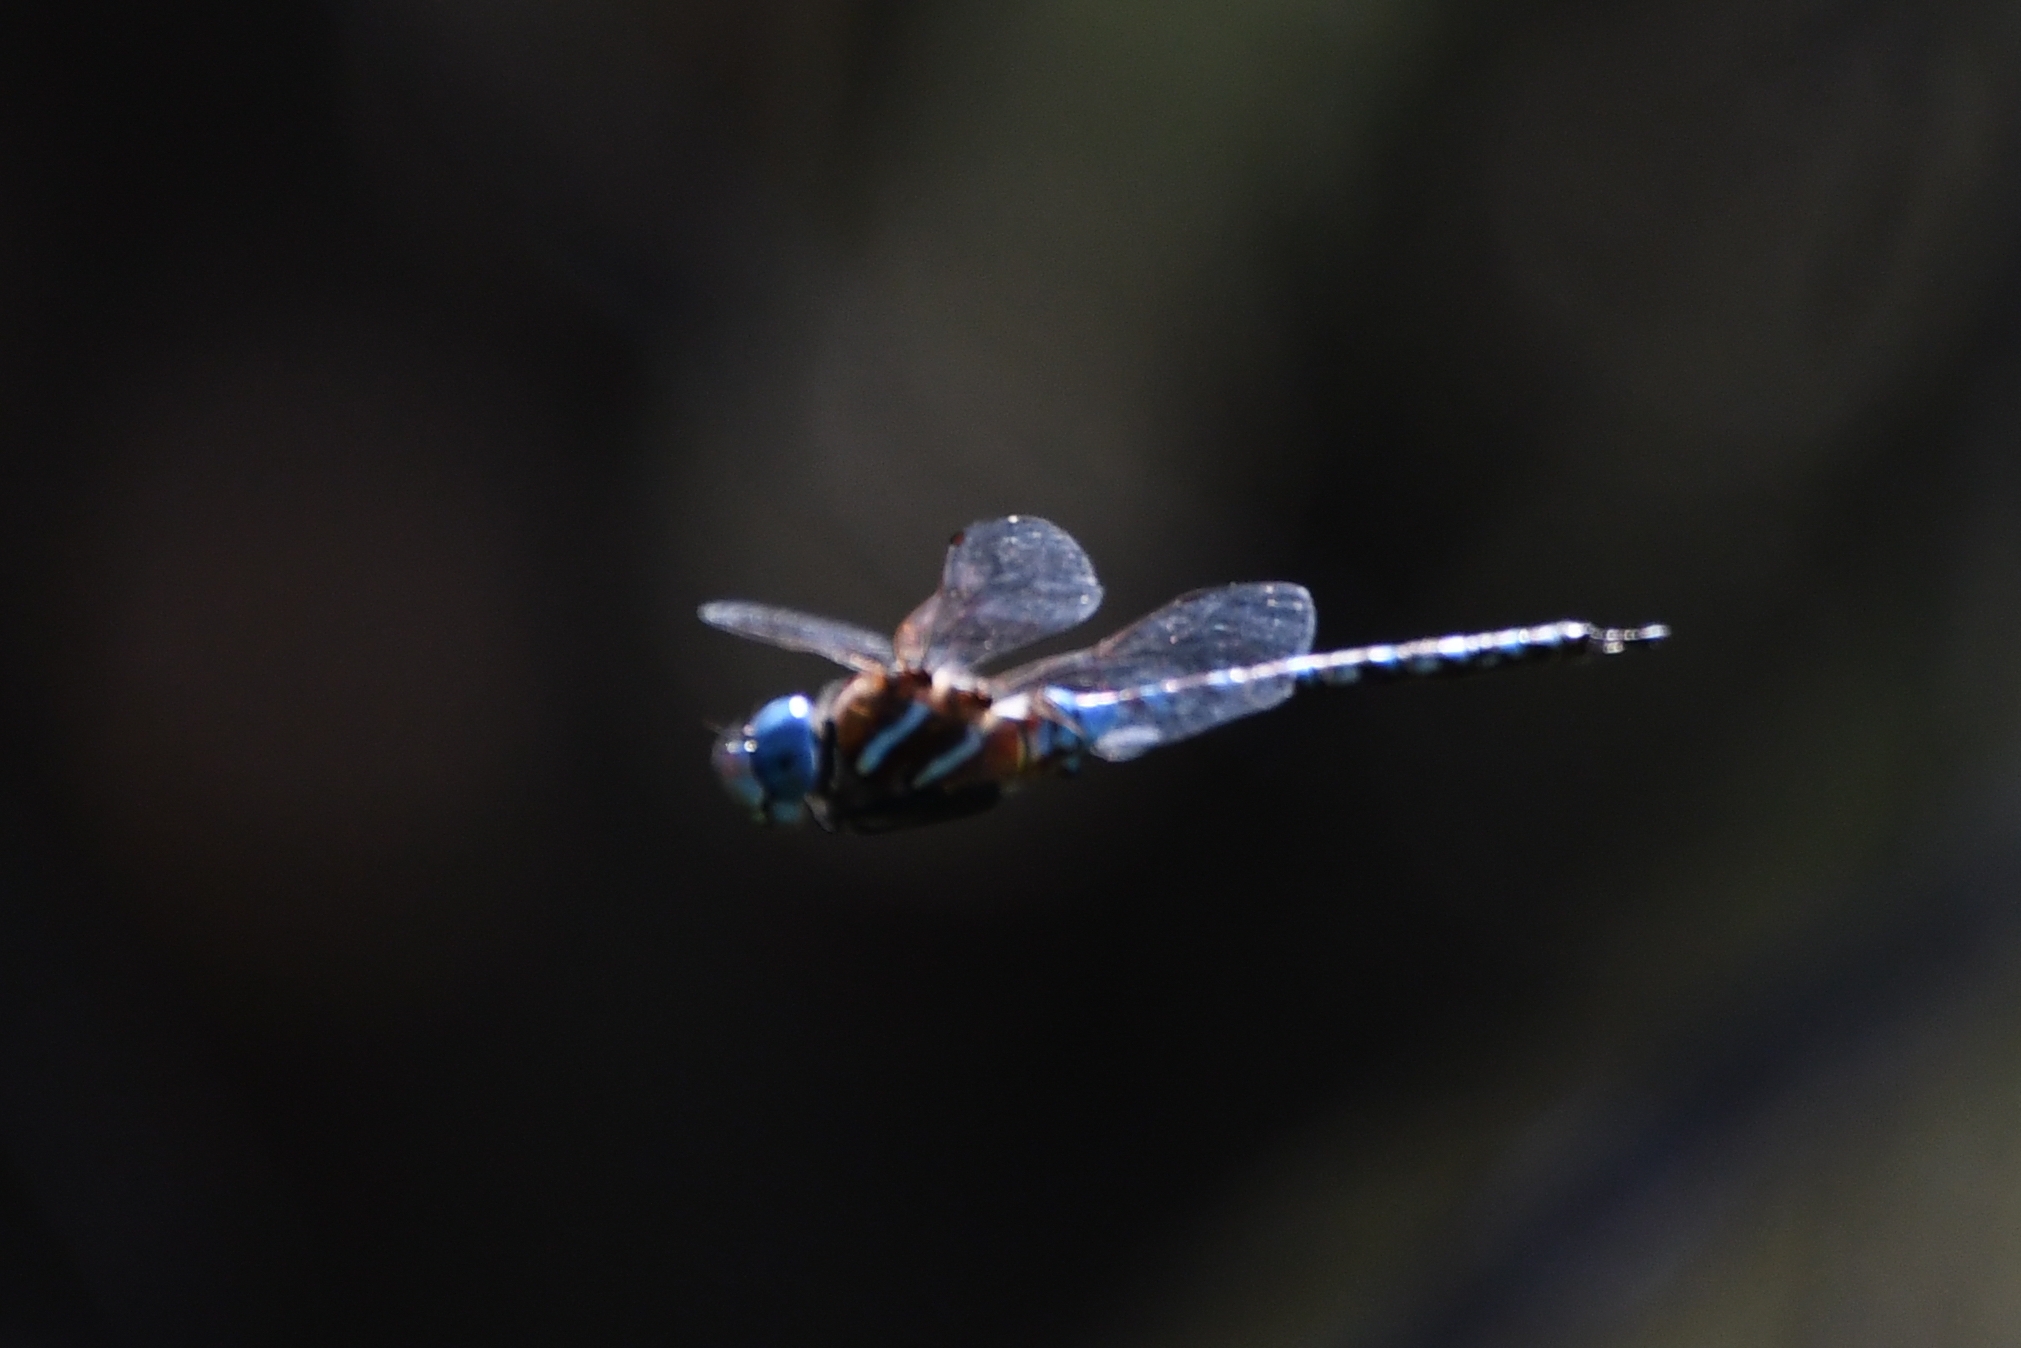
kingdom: Animalia
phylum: Arthropoda
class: Insecta
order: Odonata
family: Aeshnidae
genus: Rhionaeschna
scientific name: Rhionaeschna multicolor
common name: Blue-eyed darner
